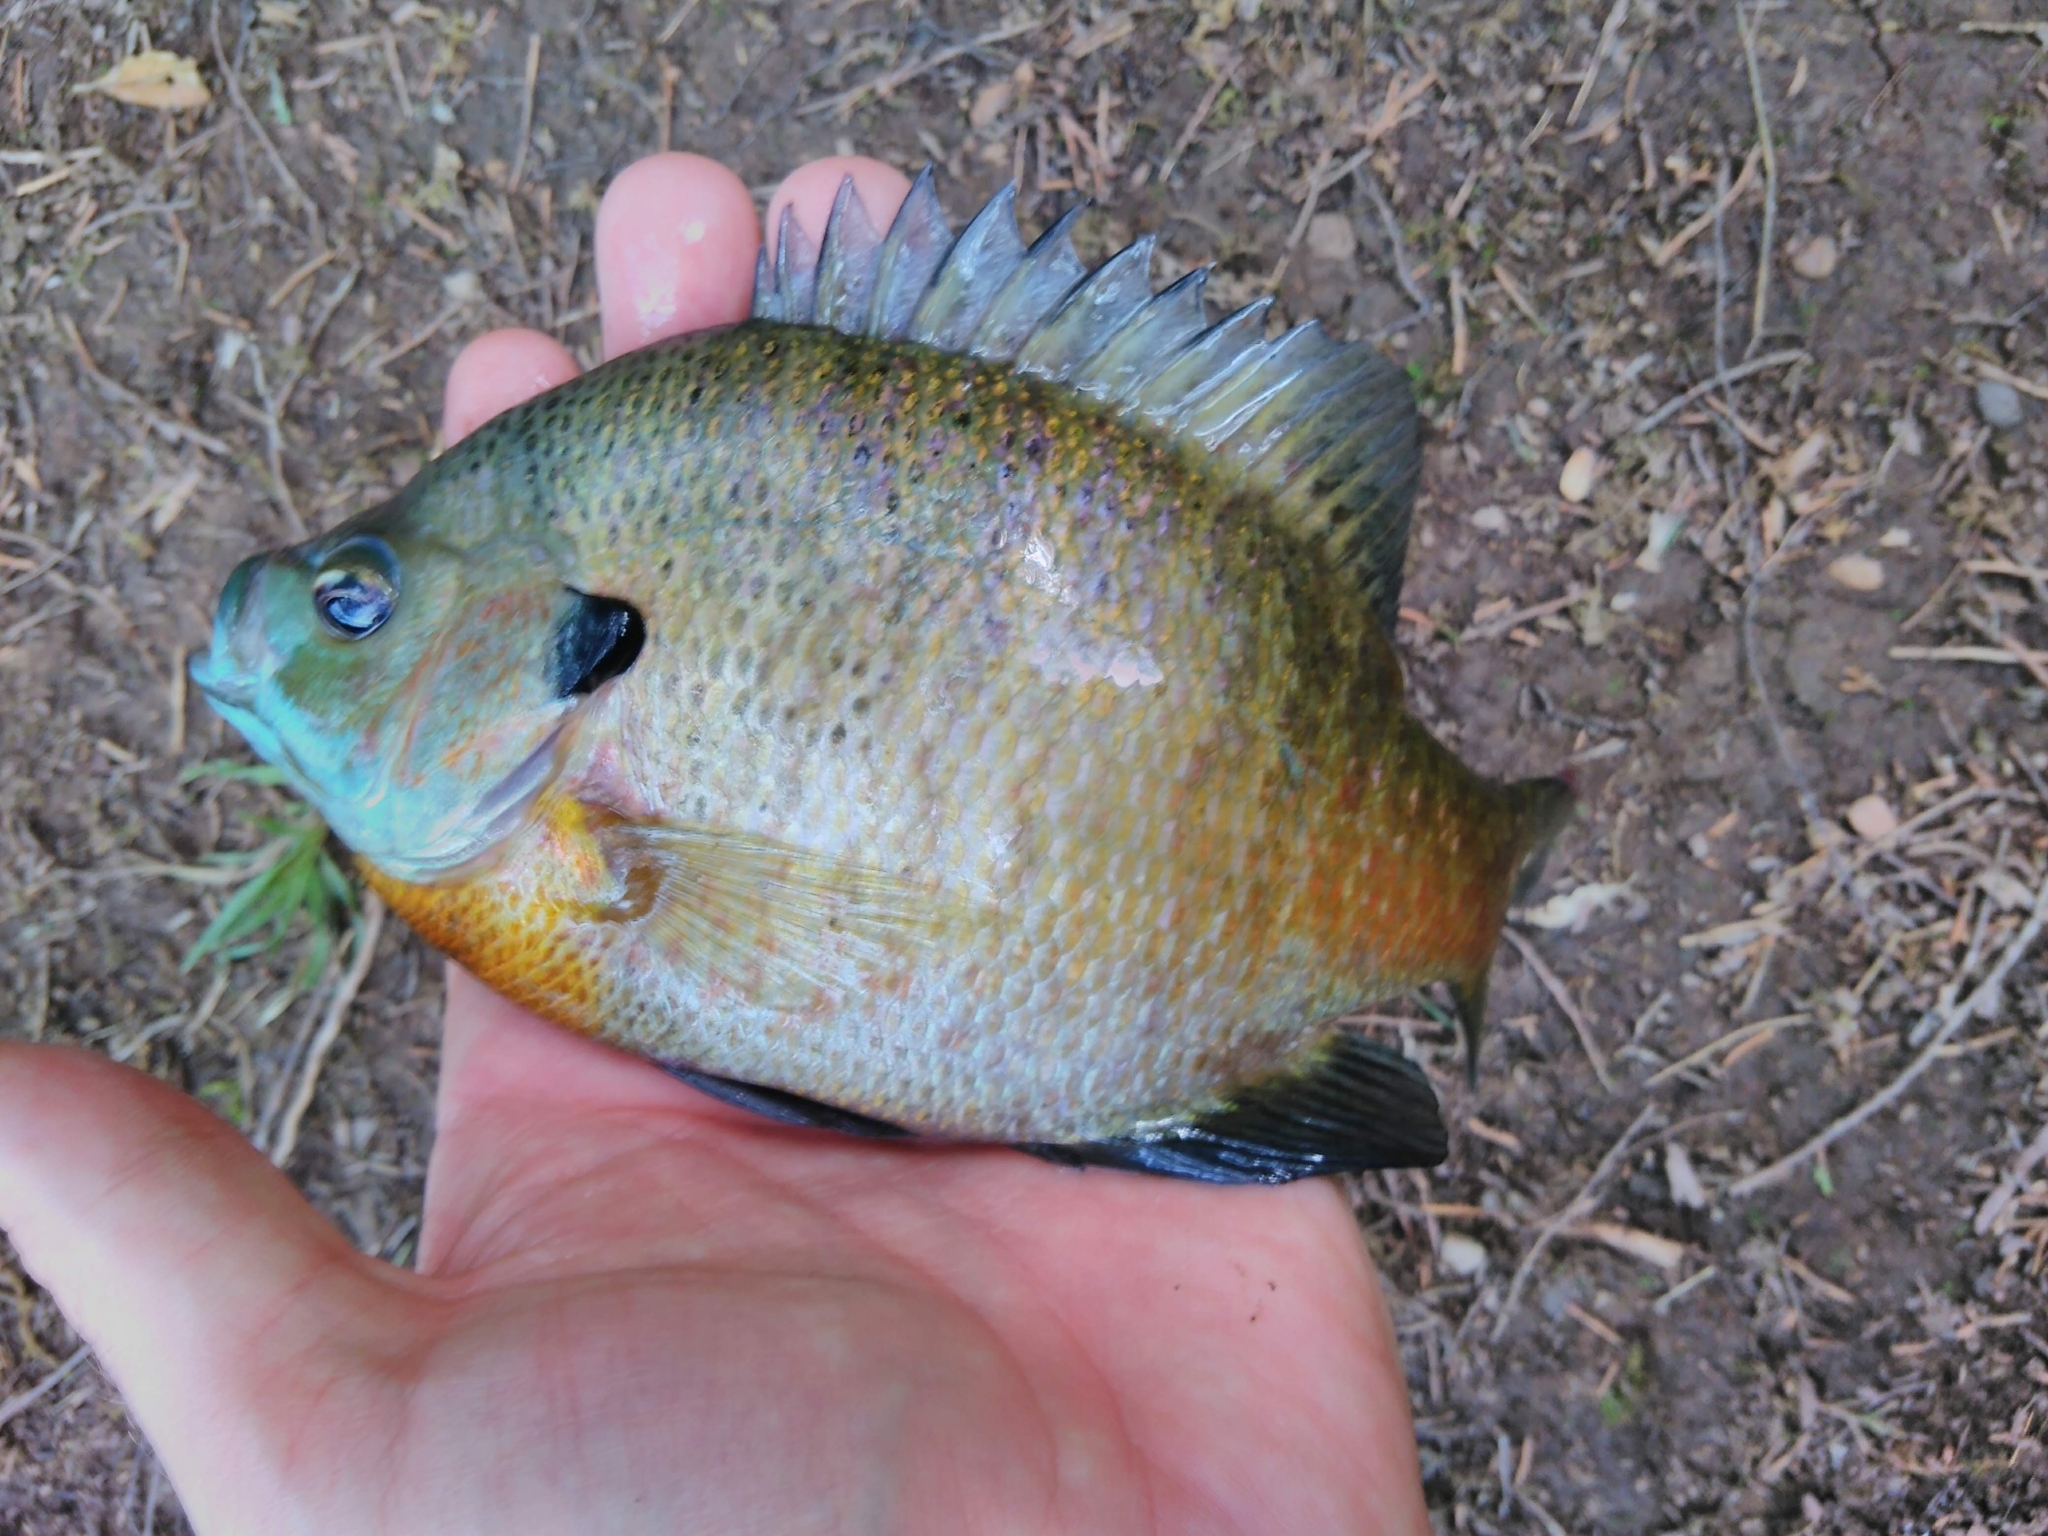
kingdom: Animalia
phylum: Chordata
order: Perciformes
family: Centrarchidae
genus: Lepomis
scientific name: Lepomis macrochirus
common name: Bluegill
